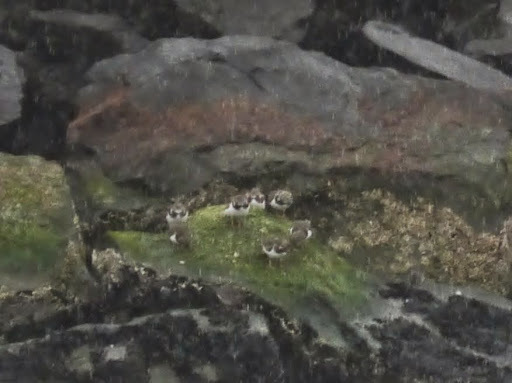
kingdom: Animalia
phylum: Chordata
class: Aves
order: Charadriiformes
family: Scolopacidae
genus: Arenaria
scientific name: Arenaria interpres
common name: Ruddy turnstone
